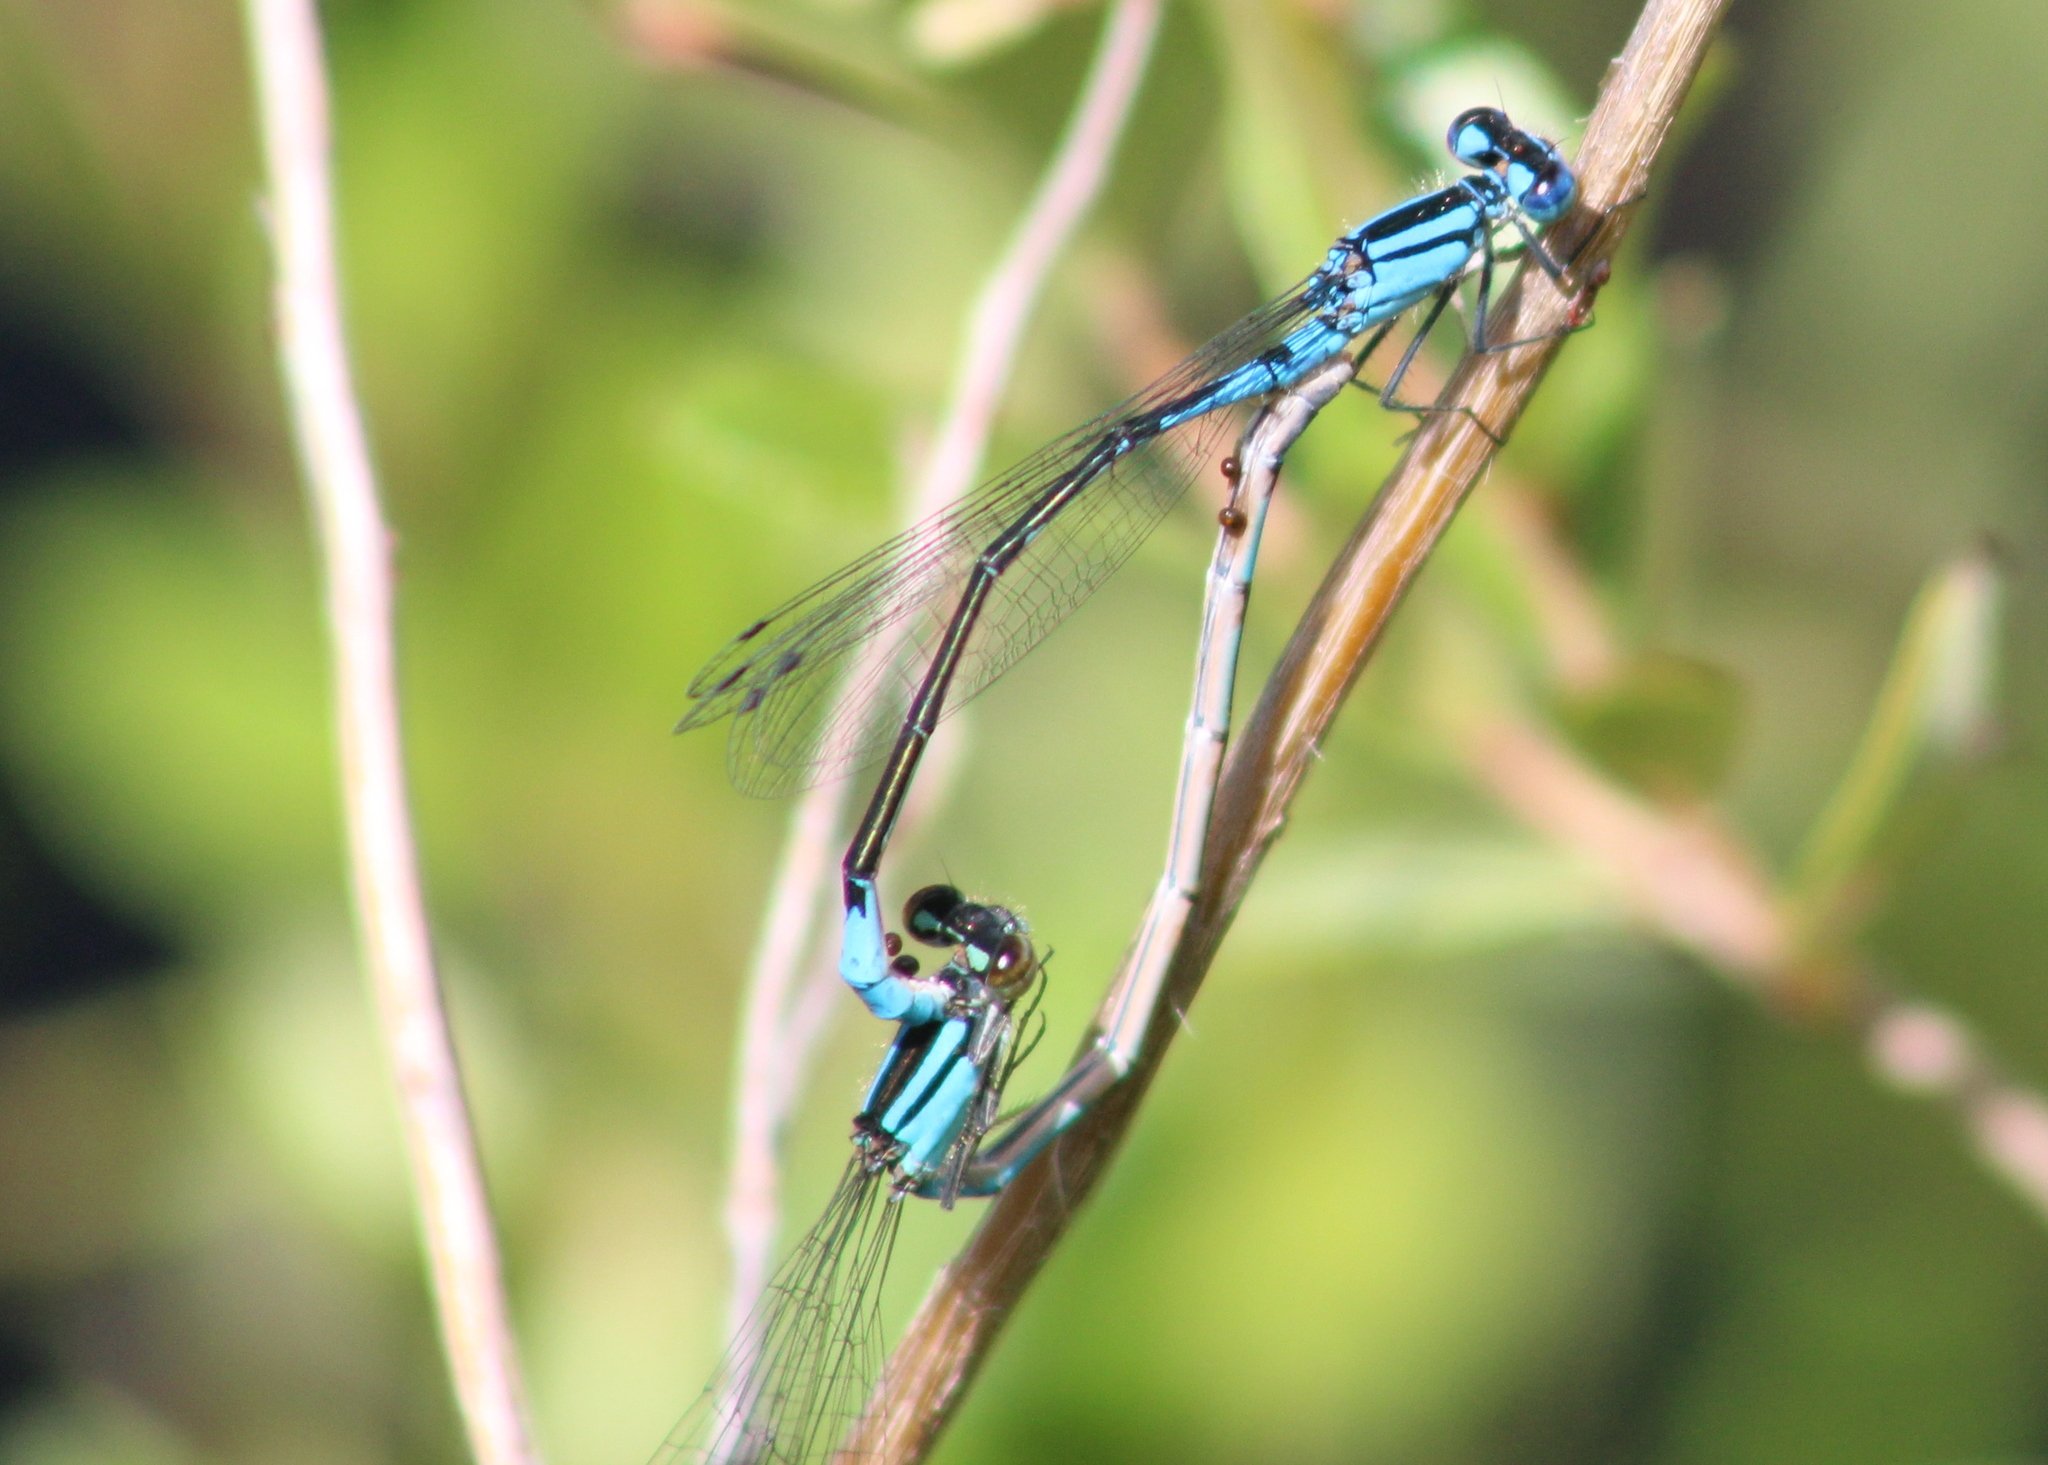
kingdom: Animalia
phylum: Arthropoda
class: Insecta
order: Odonata
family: Coenagrionidae
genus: Enallagma
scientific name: Enallagma aspersum
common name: Azure bluet
